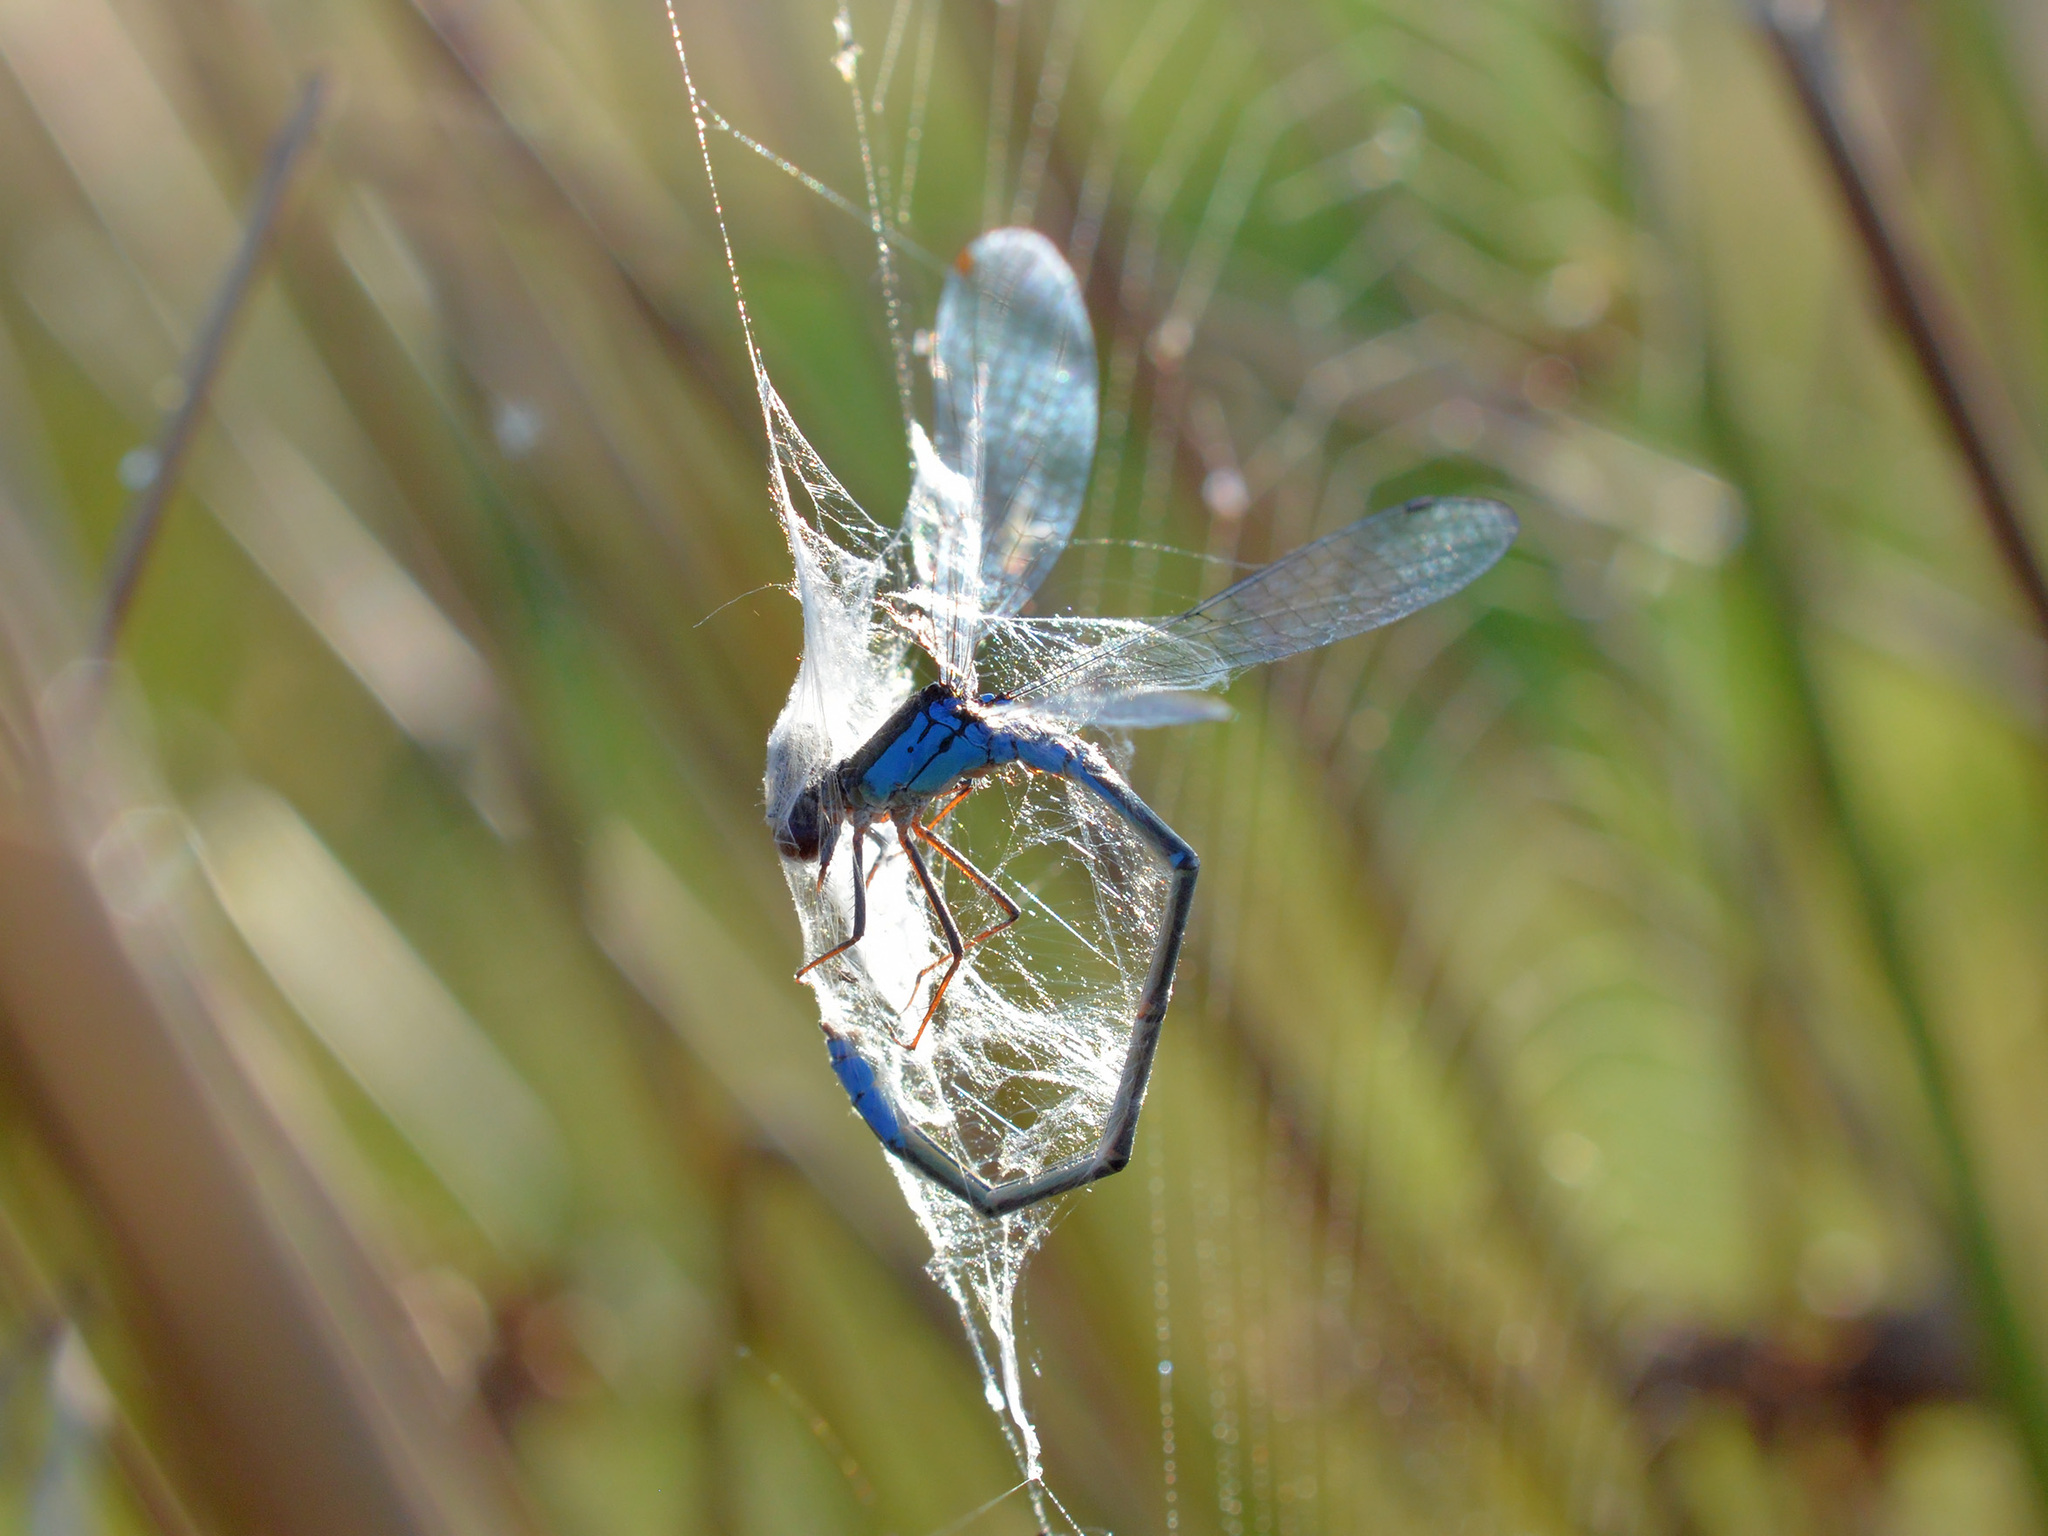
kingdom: Animalia
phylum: Arthropoda
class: Insecta
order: Odonata
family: Coenagrionidae
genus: Erythromma
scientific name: Erythromma viridulum
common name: Small red-eyed damselfly
